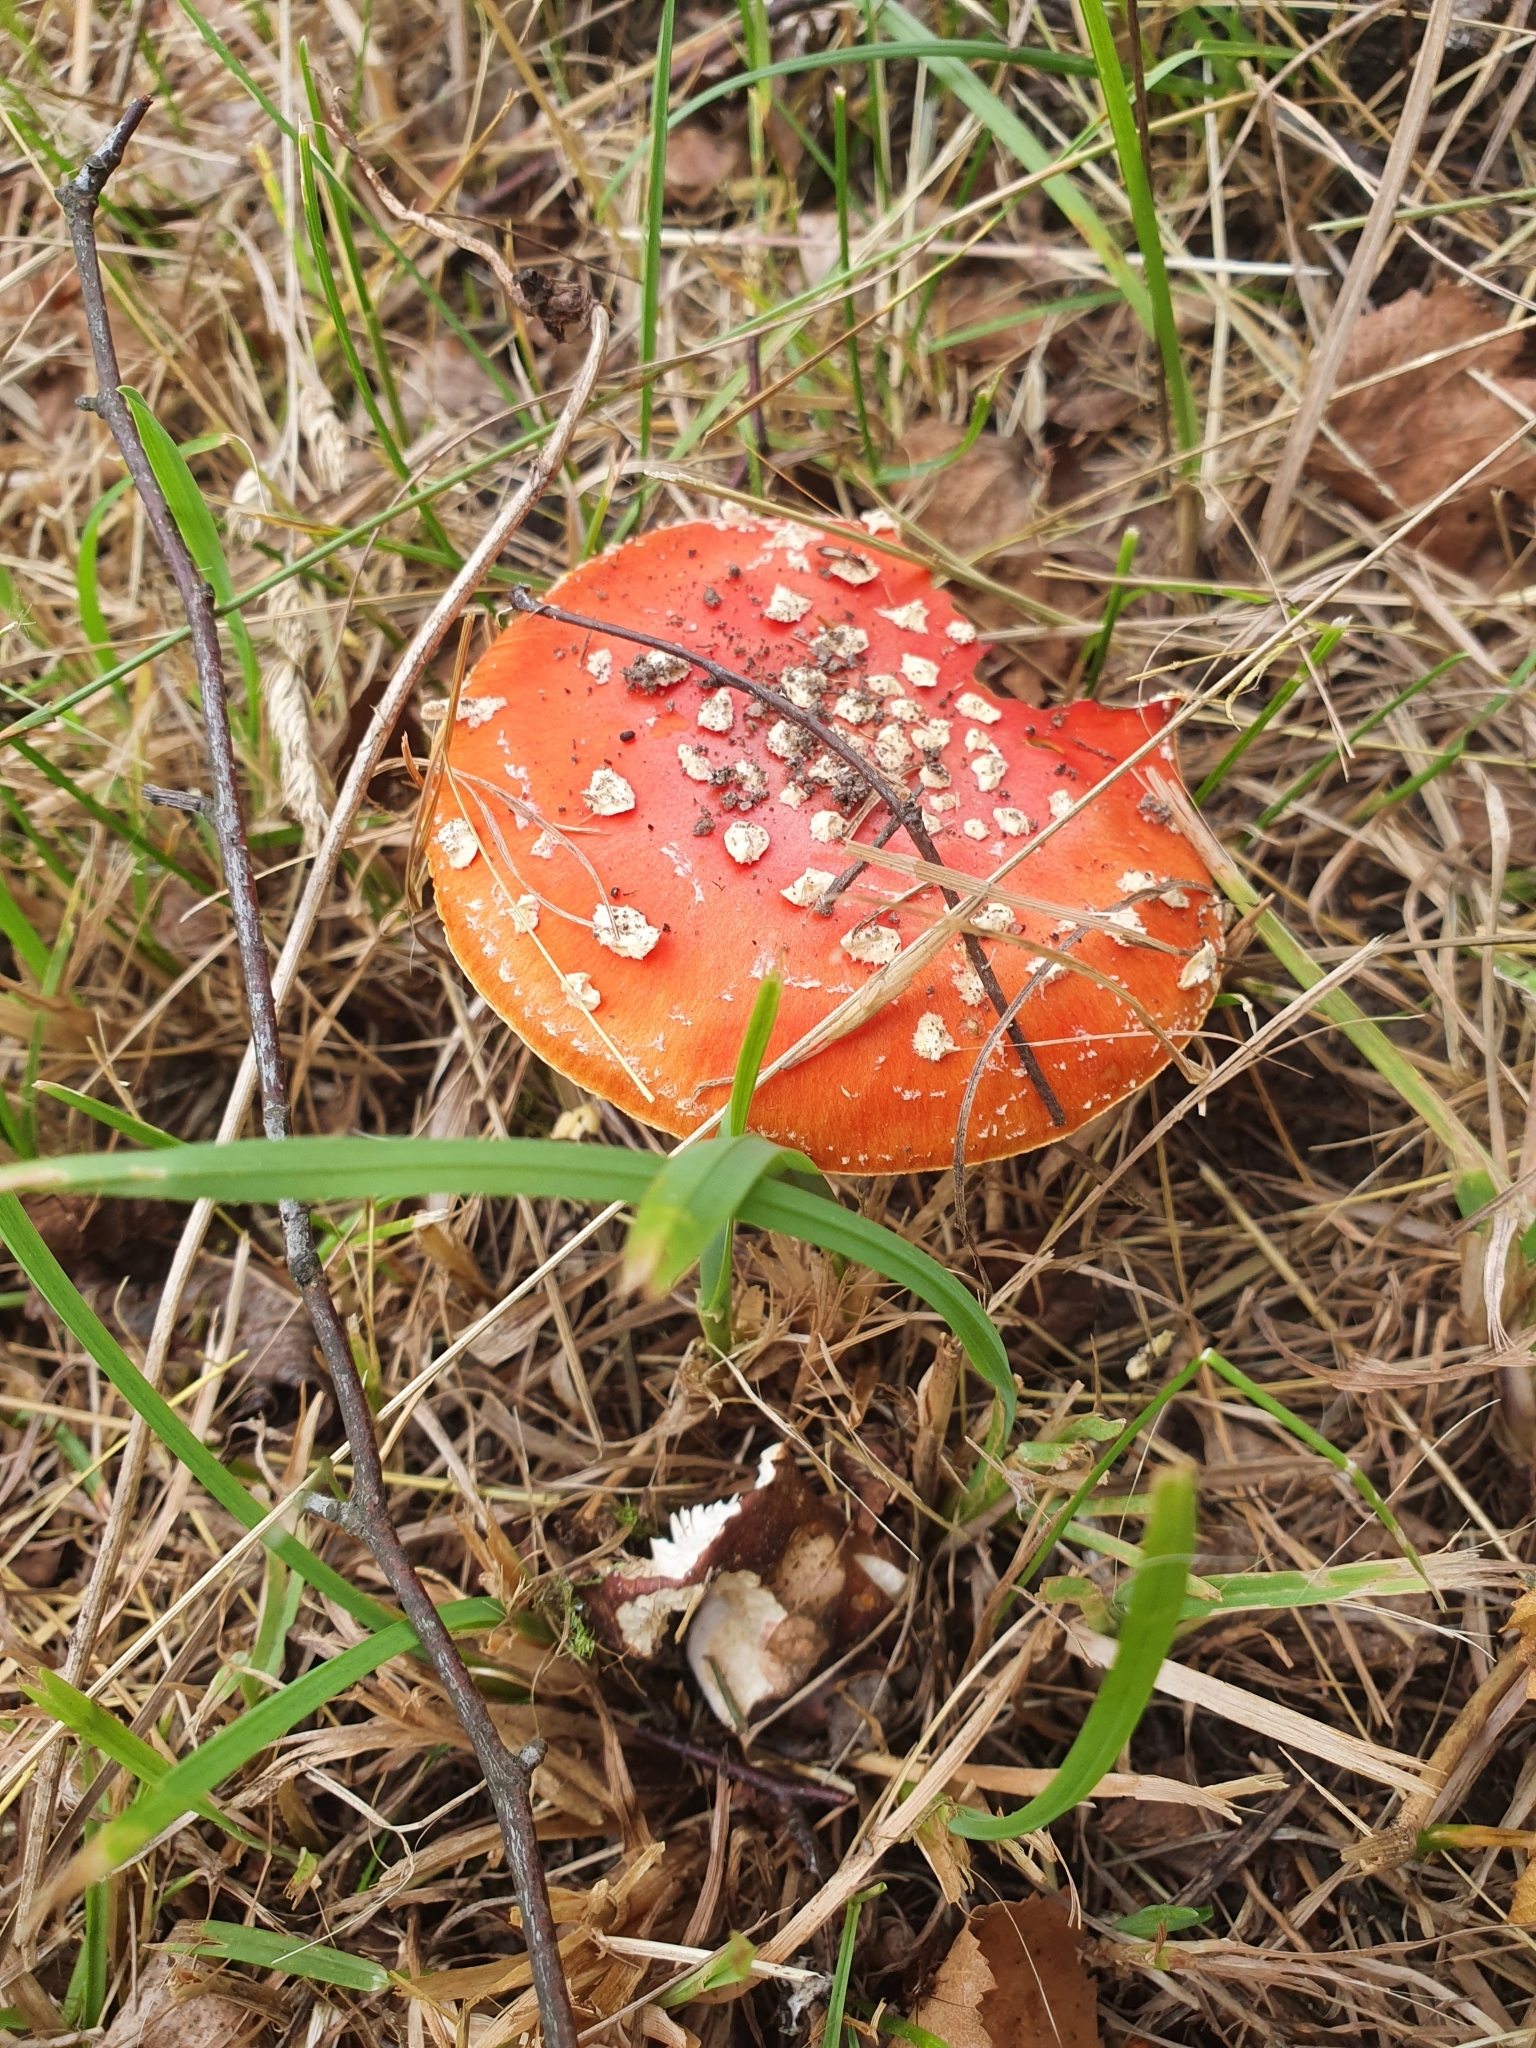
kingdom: Fungi
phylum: Basidiomycota
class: Agaricomycetes
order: Agaricales
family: Amanitaceae
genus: Amanita
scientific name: Amanita muscaria
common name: Fly agaric
